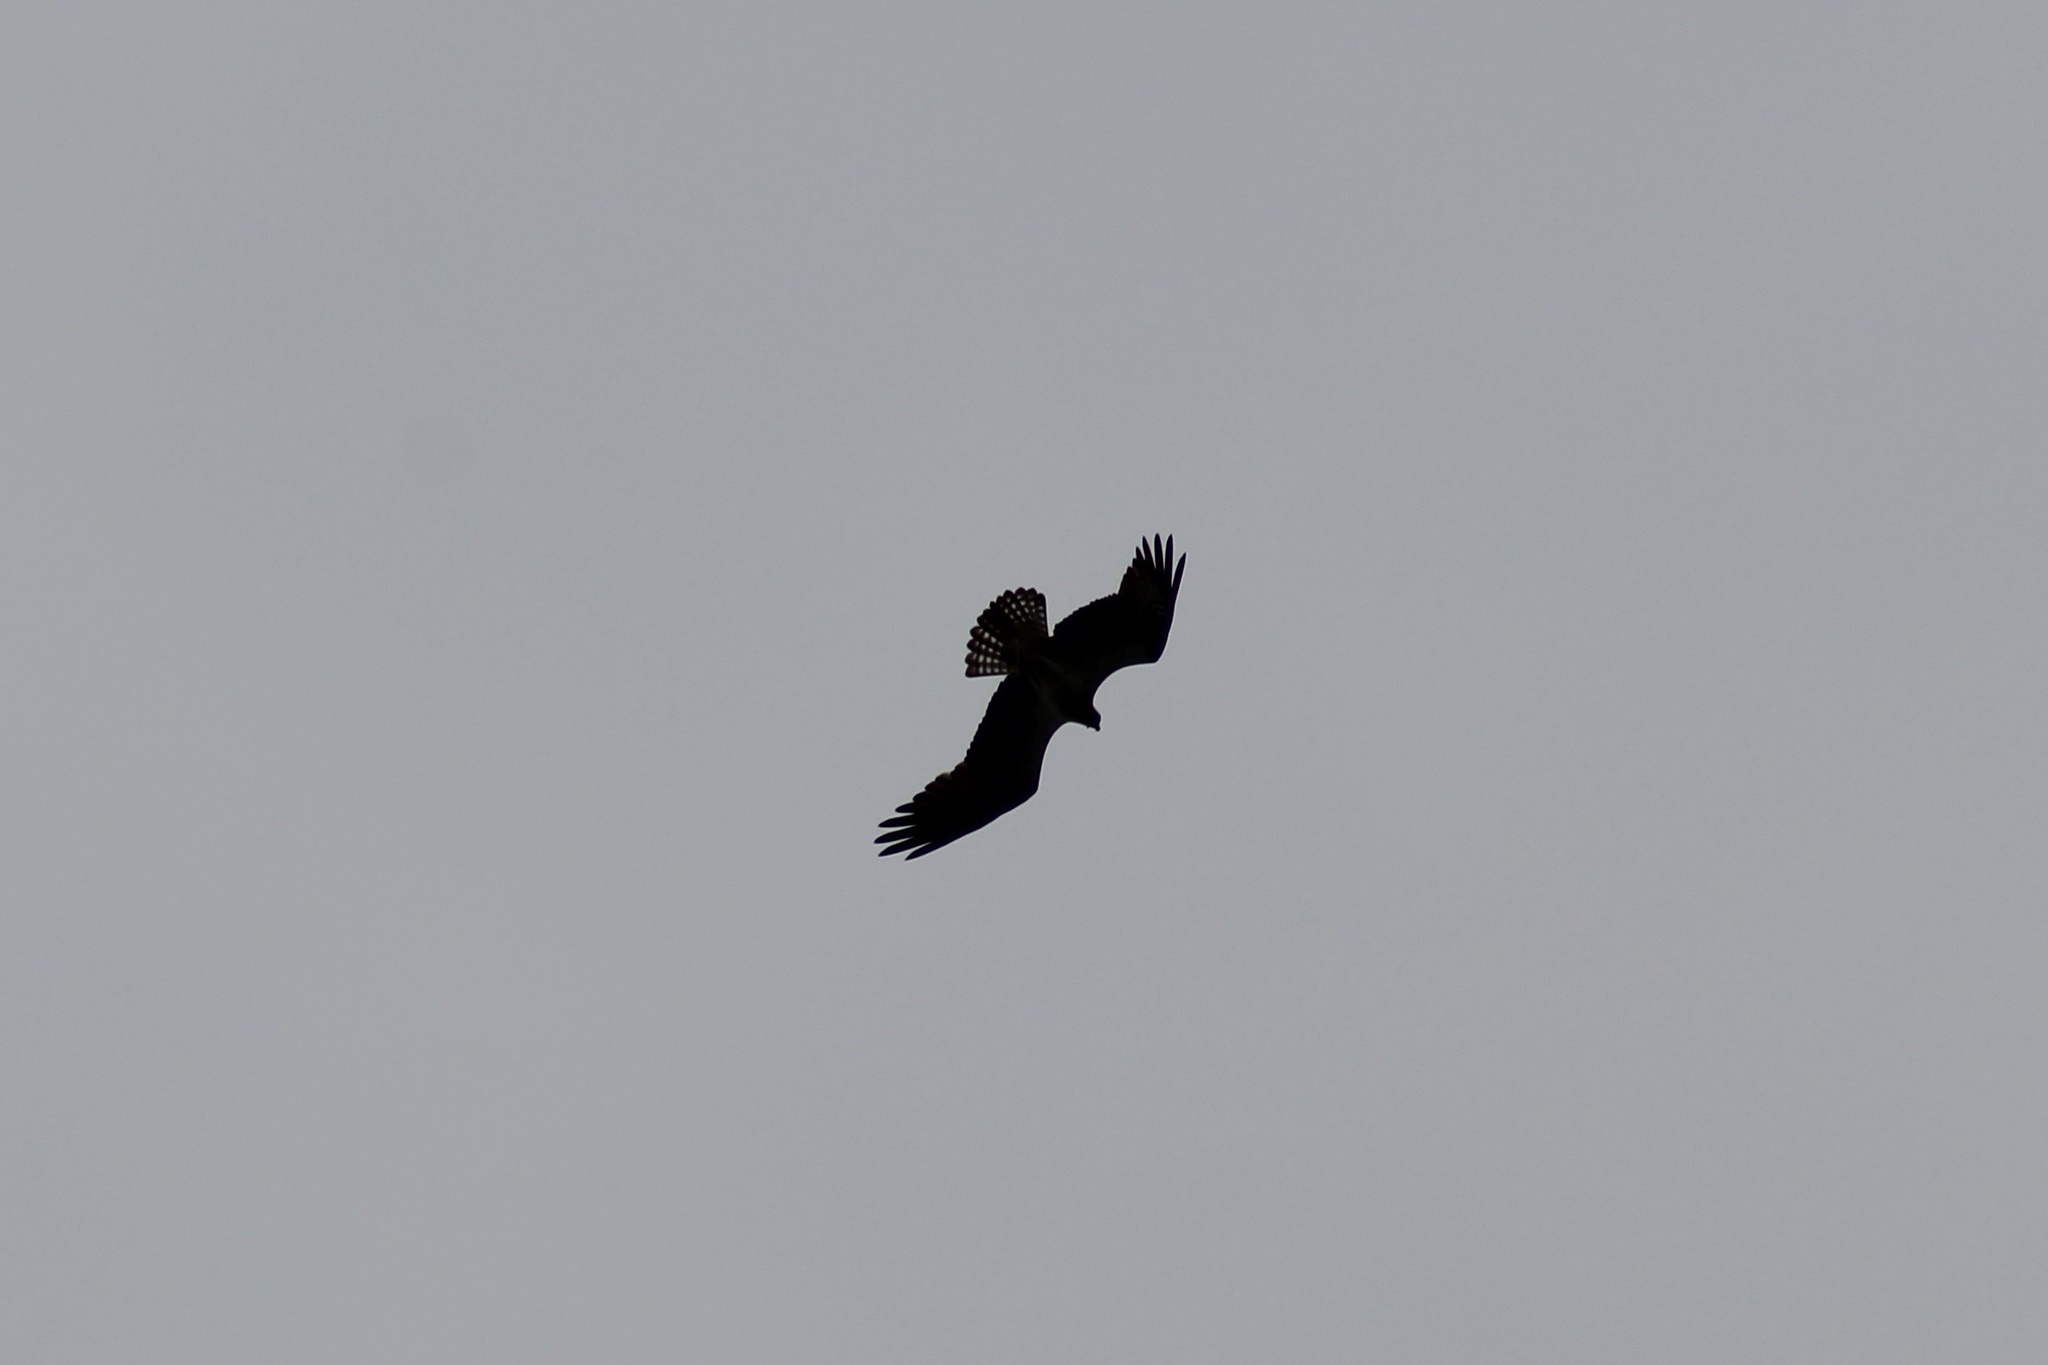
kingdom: Animalia
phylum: Chordata
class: Aves
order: Accipitriformes
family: Pandionidae
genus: Pandion
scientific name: Pandion haliaetus
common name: Osprey
